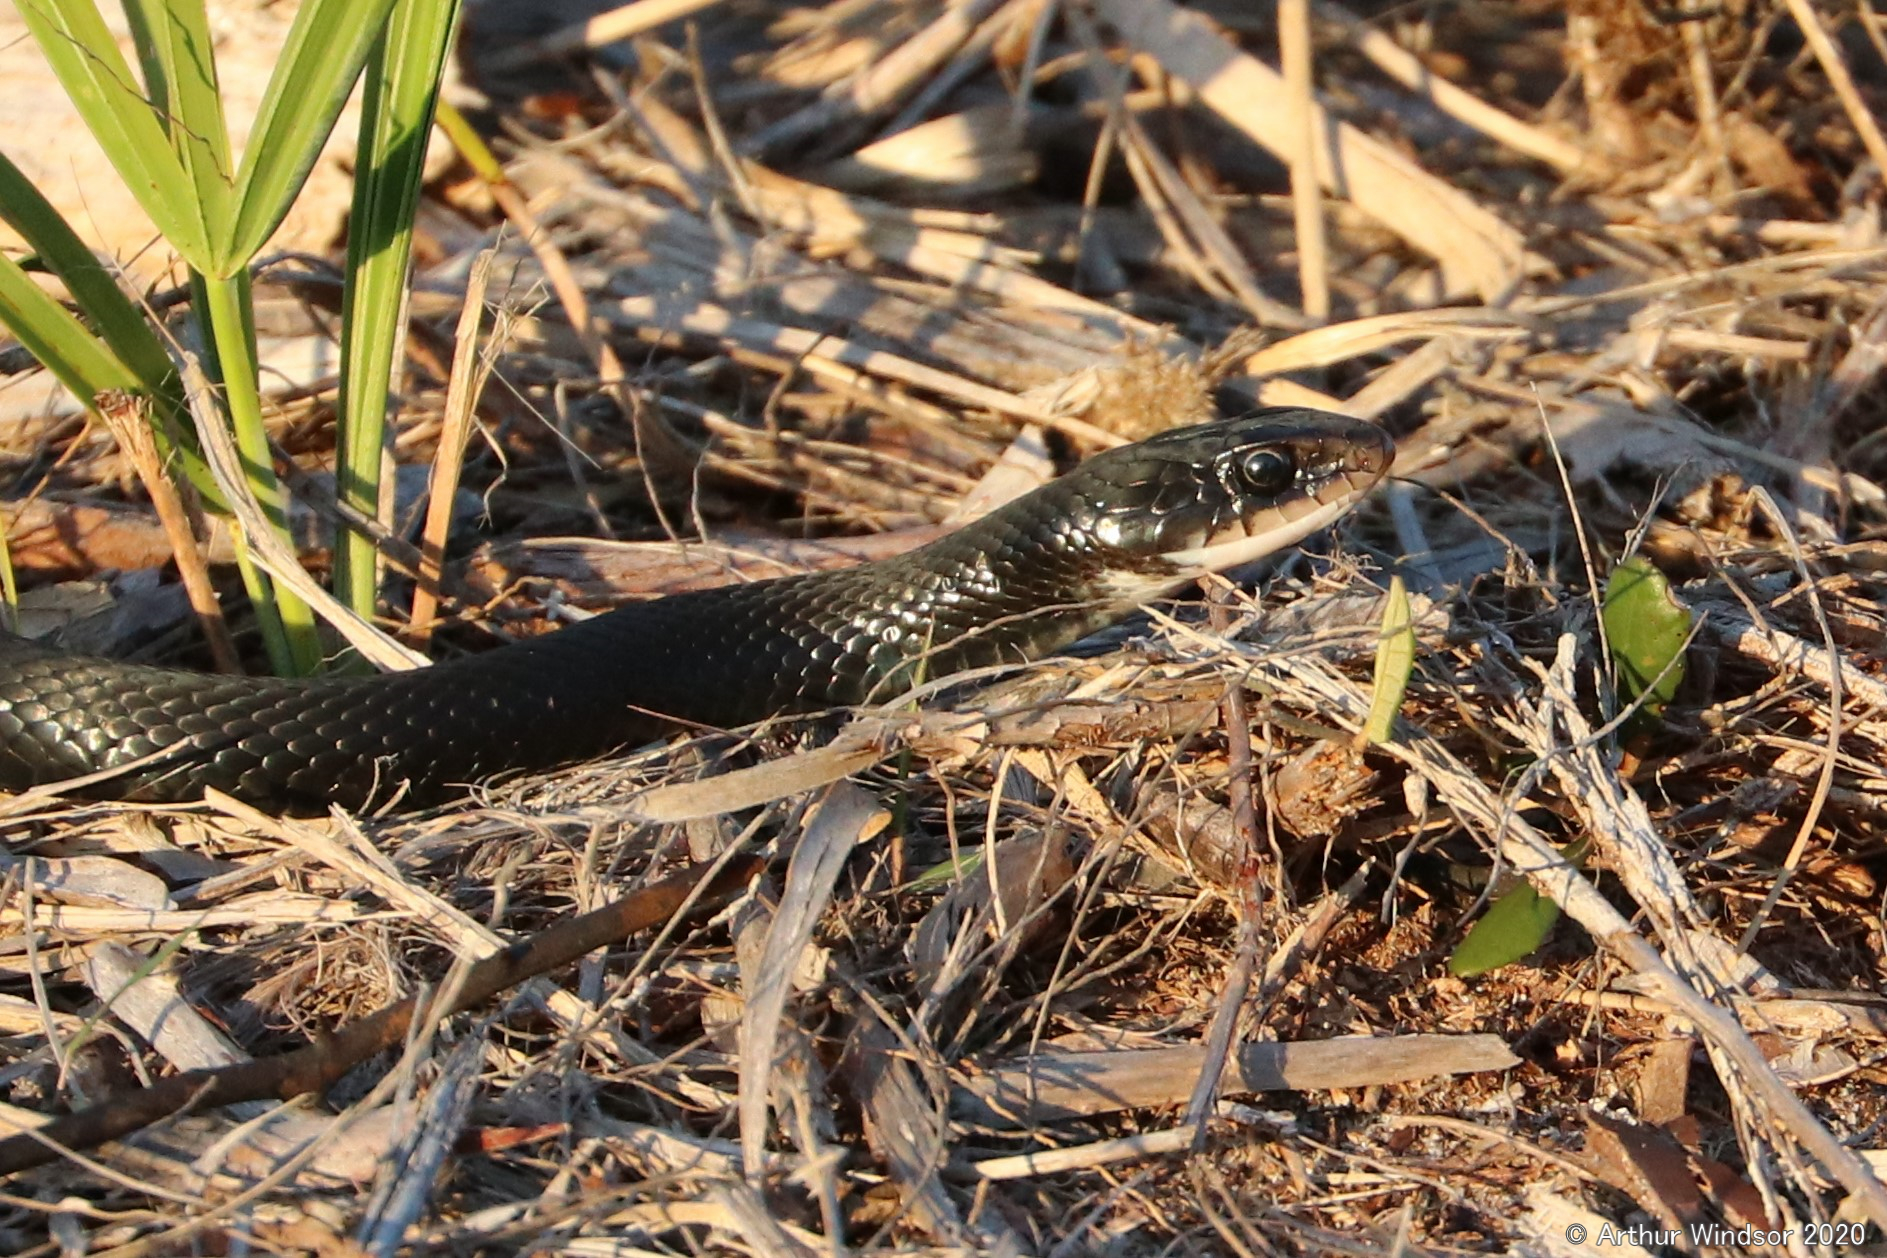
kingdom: Animalia
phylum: Chordata
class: Squamata
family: Colubridae
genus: Coluber
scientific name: Coluber constrictor
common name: Eastern racer
